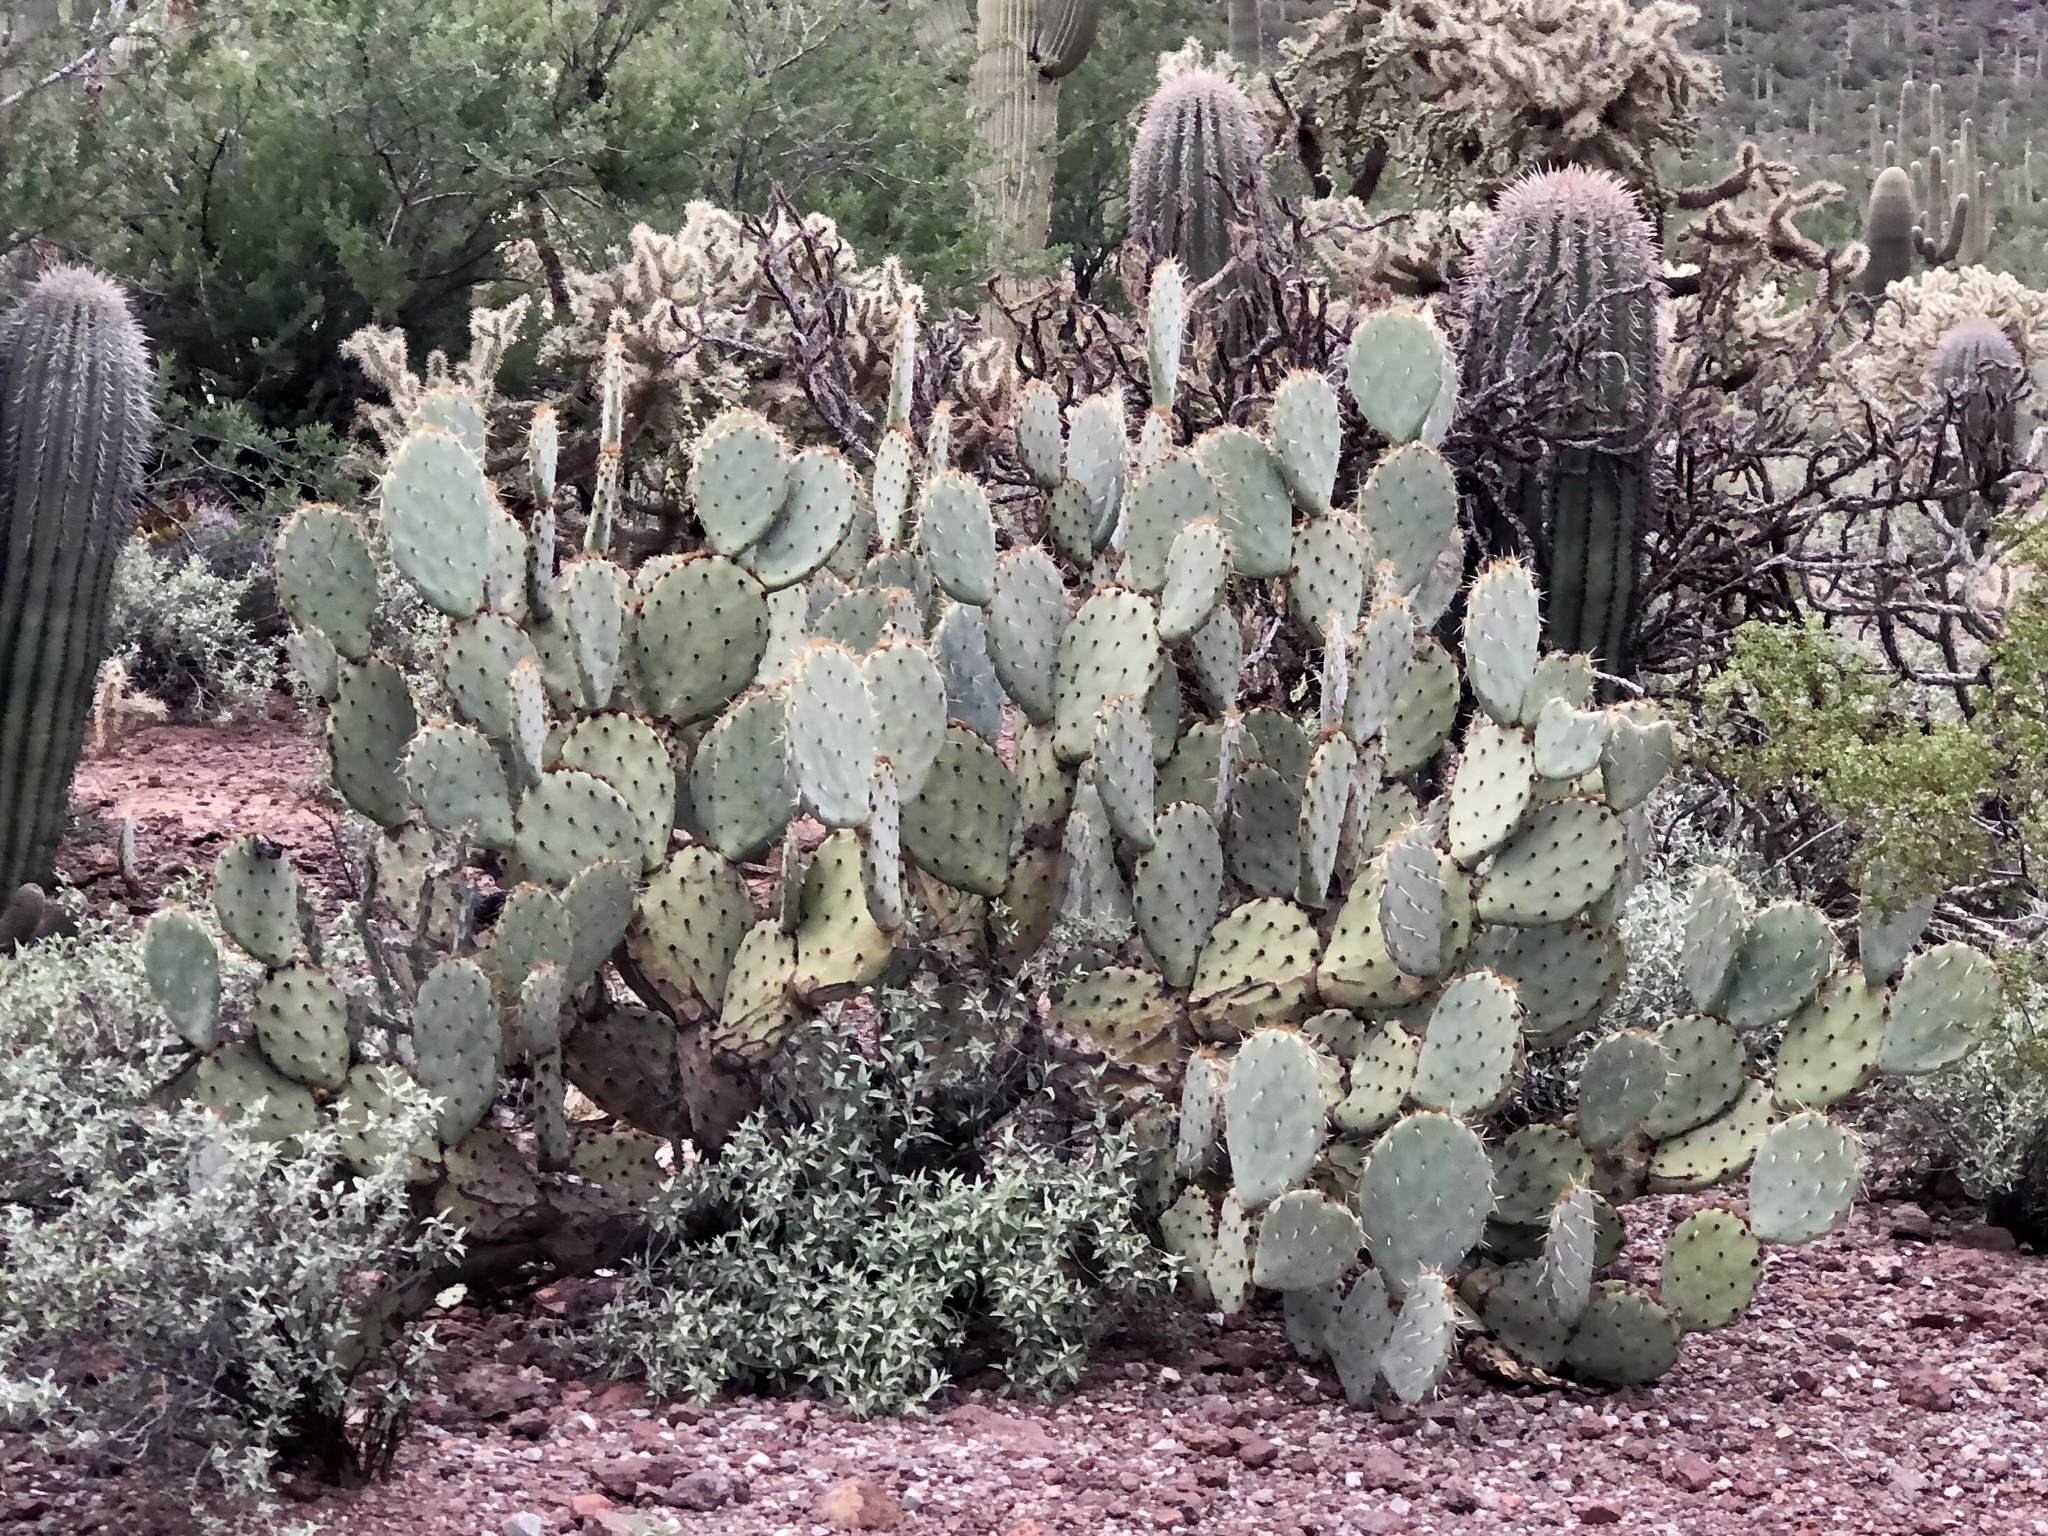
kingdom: Plantae
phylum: Tracheophyta
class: Magnoliopsida
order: Caryophyllales
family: Cactaceae
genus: Opuntia
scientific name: Opuntia engelmannii
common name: Cactus-apple
